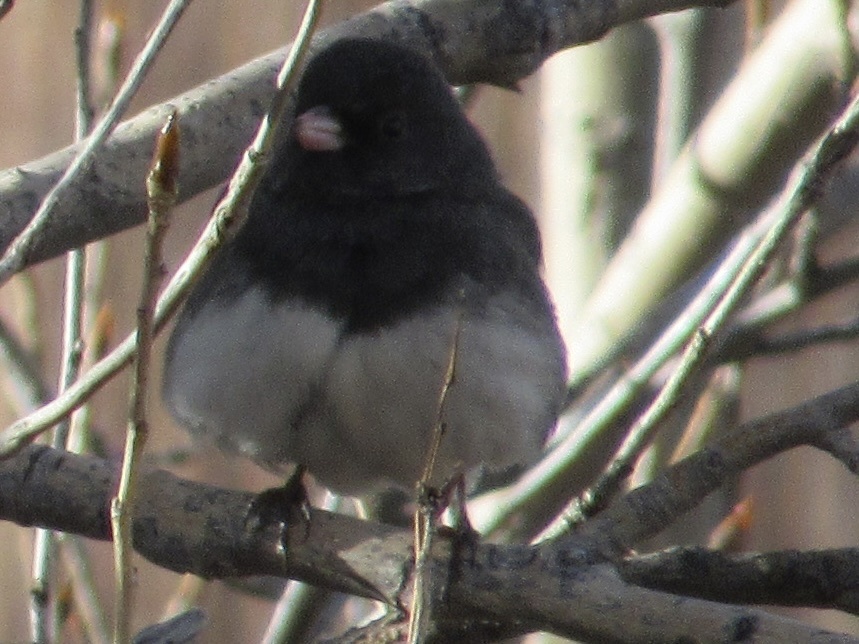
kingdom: Animalia
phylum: Chordata
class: Aves
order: Passeriformes
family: Passerellidae
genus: Junco
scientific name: Junco hyemalis
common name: Dark-eyed junco
